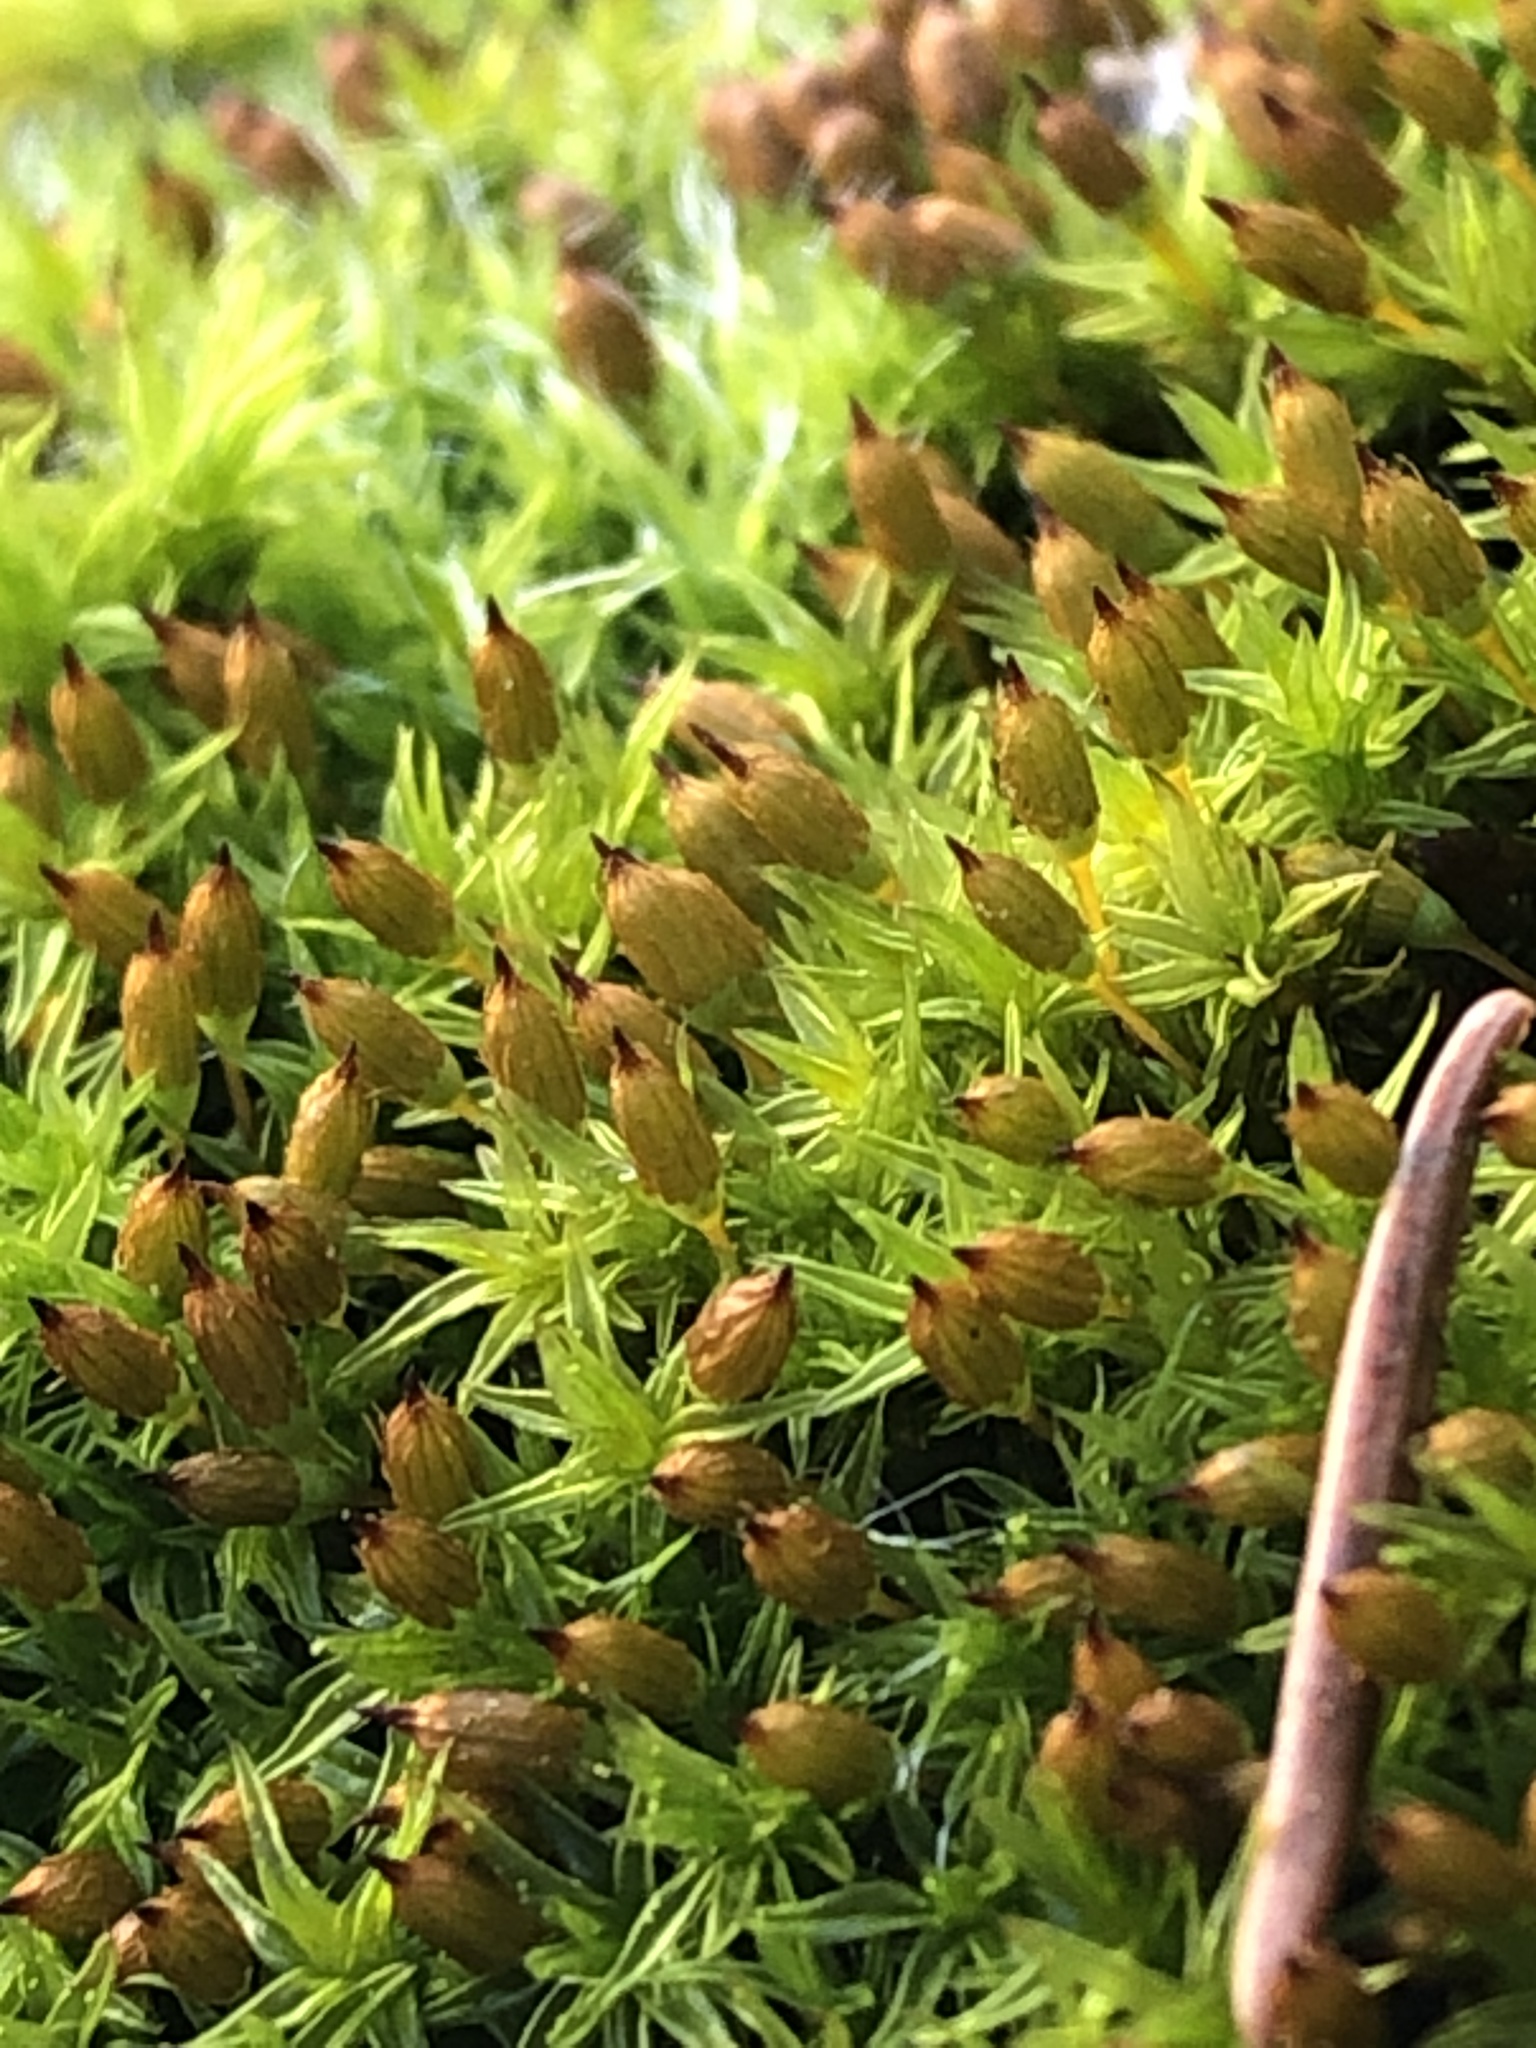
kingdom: Plantae
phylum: Bryophyta
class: Bryopsida
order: Orthotrichales
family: Orthotrichaceae
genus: Orthotrichum
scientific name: Orthotrichum anomalum
